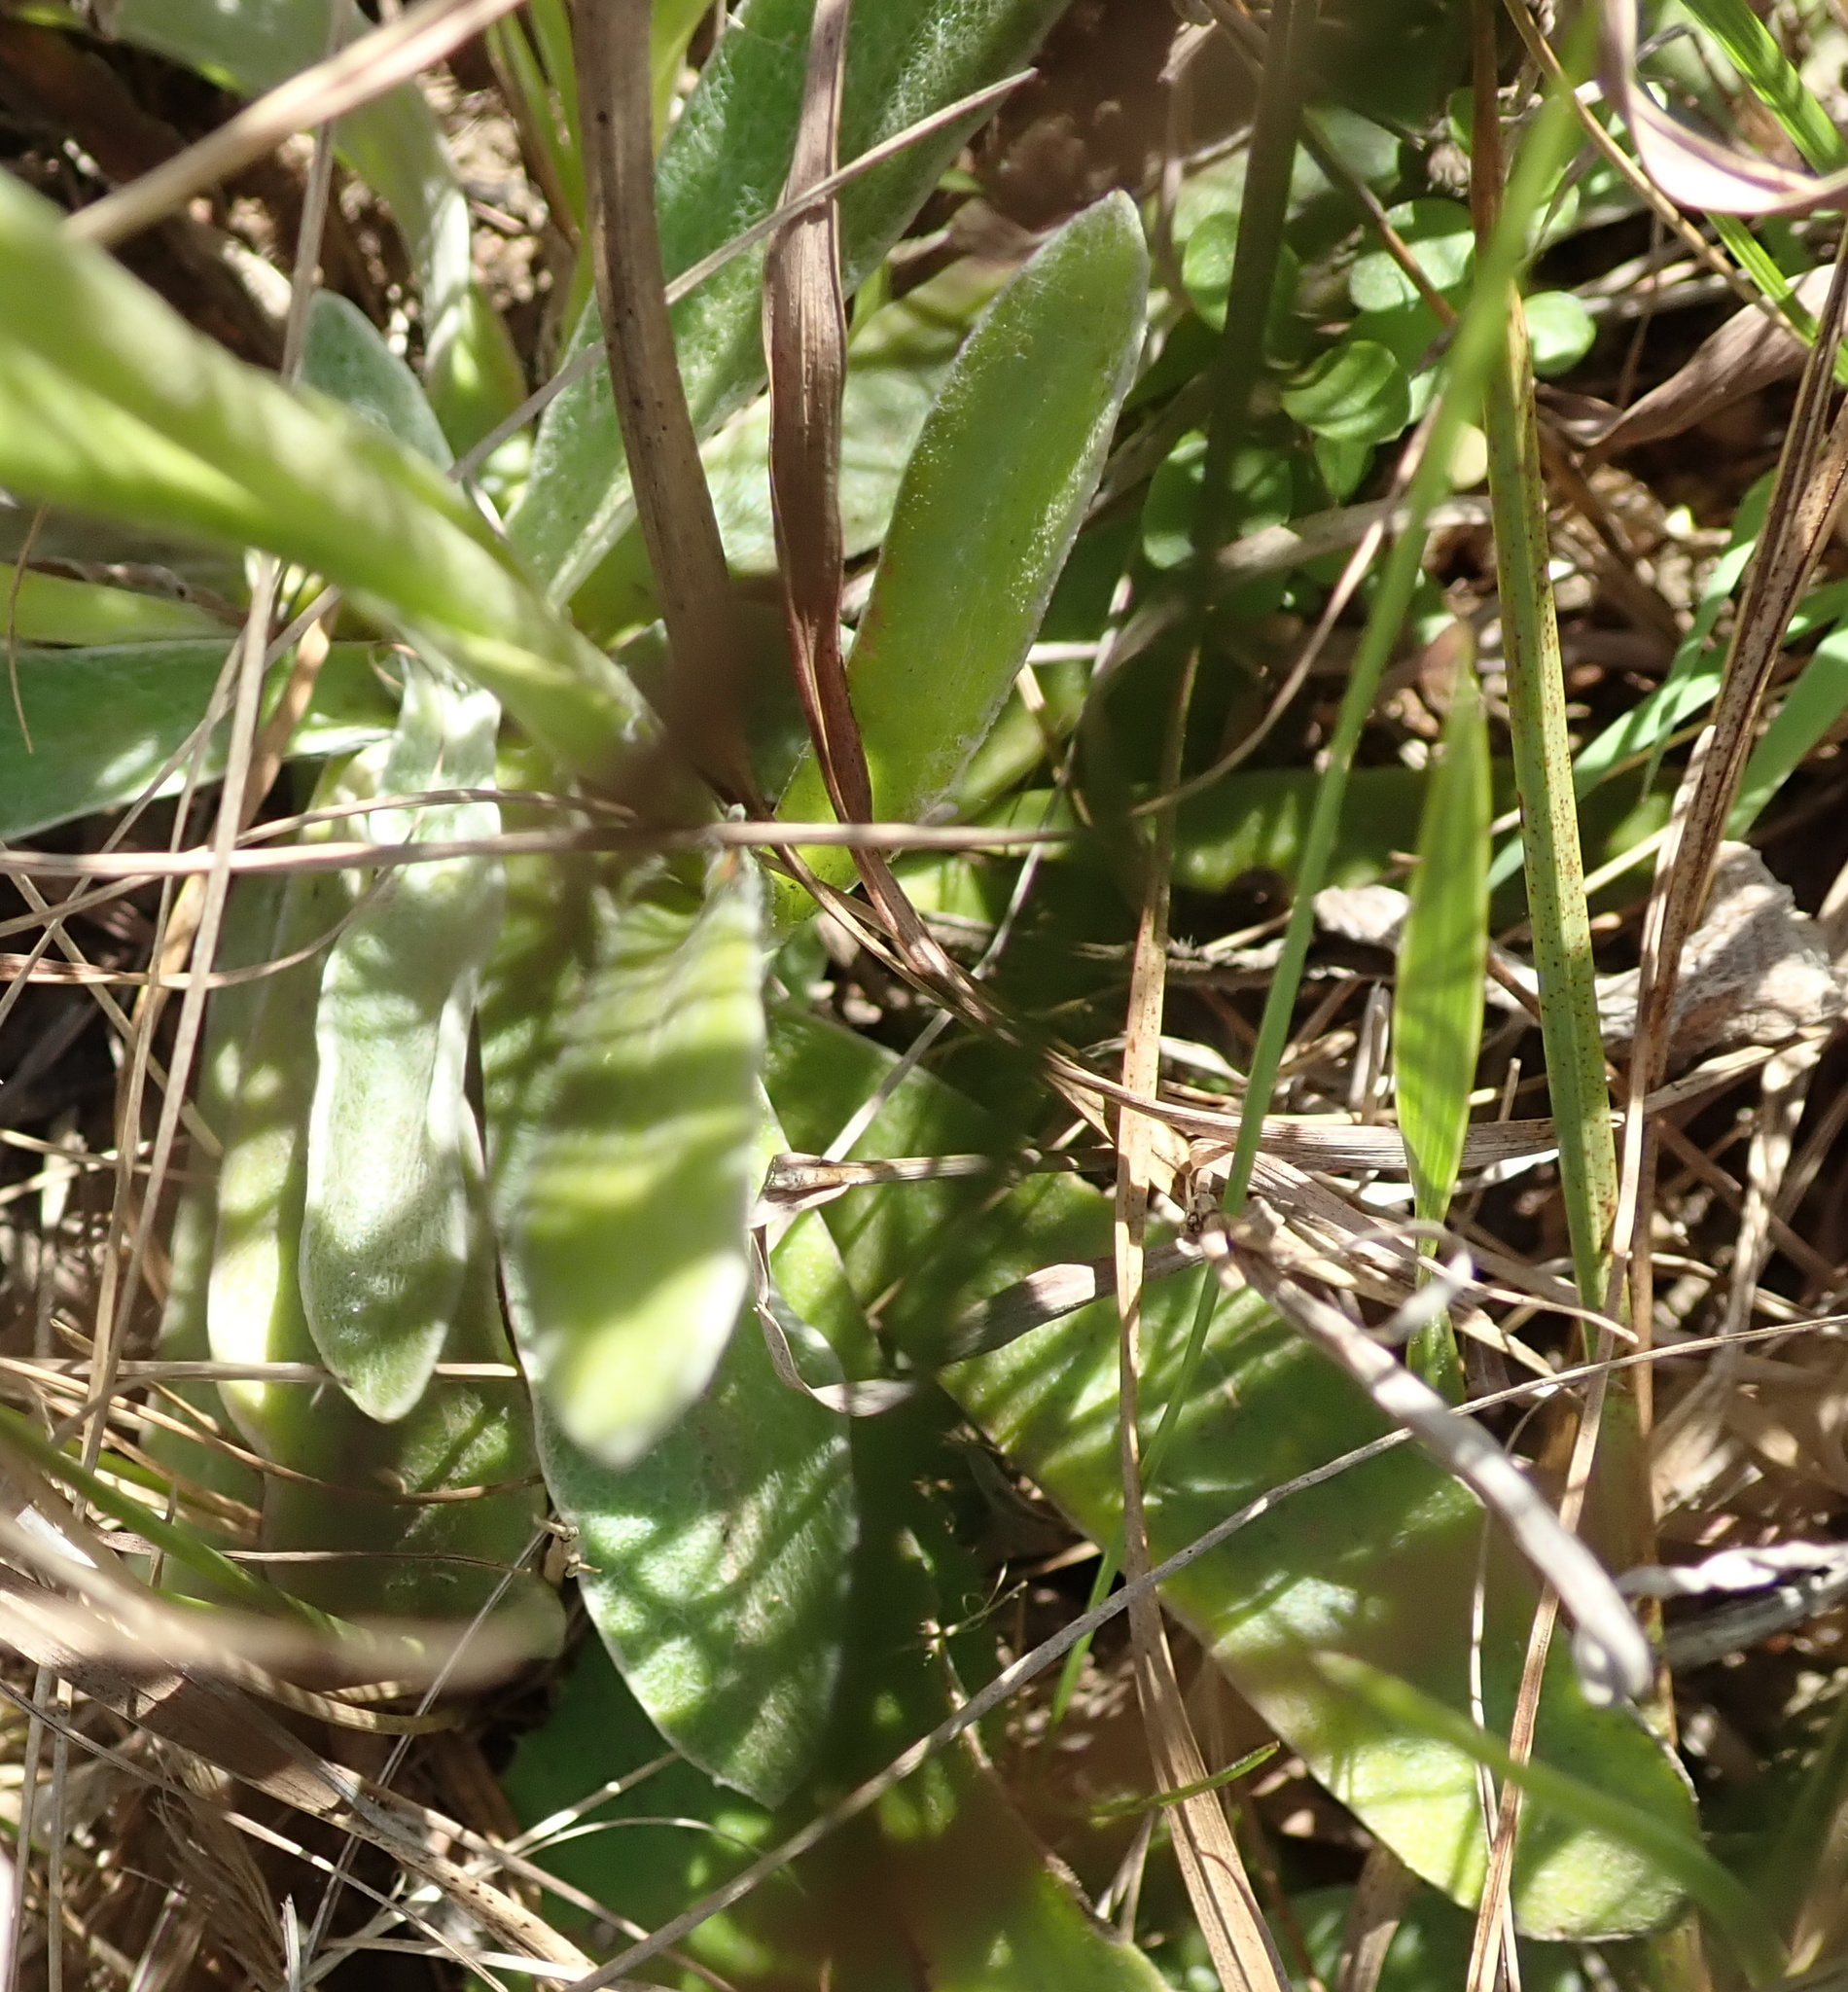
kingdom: Plantae
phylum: Tracheophyta
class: Magnoliopsida
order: Asterales
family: Asteraceae
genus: Helichrysum
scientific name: Helichrysum mixtum
